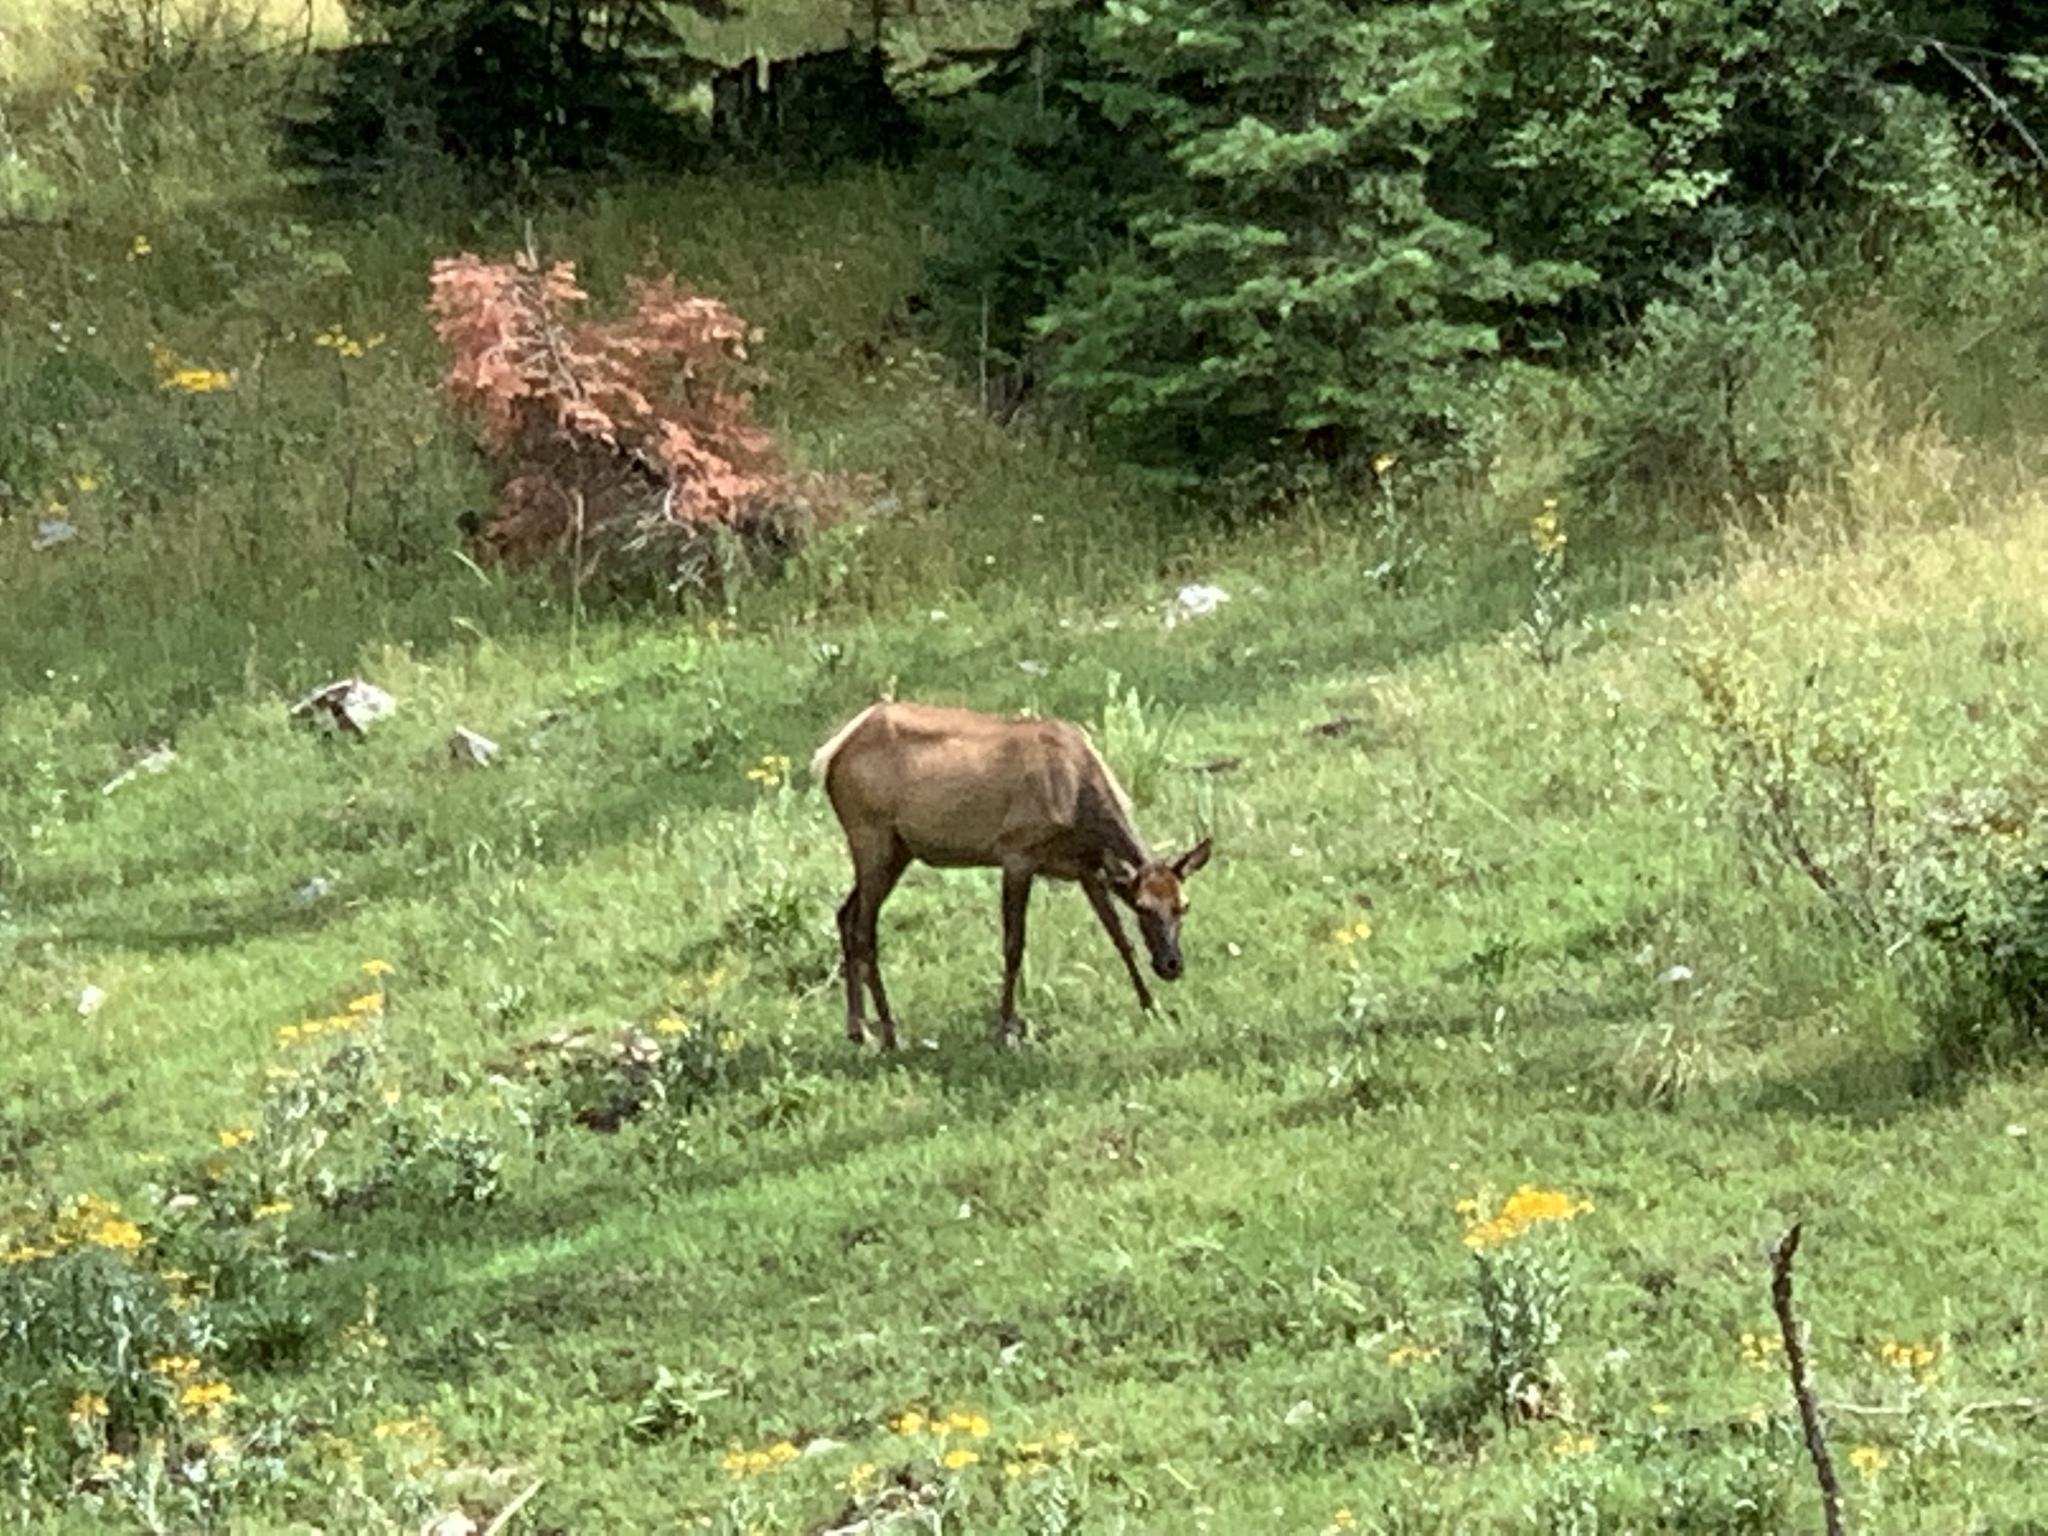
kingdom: Animalia
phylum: Chordata
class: Mammalia
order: Artiodactyla
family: Cervidae
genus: Cervus
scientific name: Cervus elaphus
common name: Red deer
